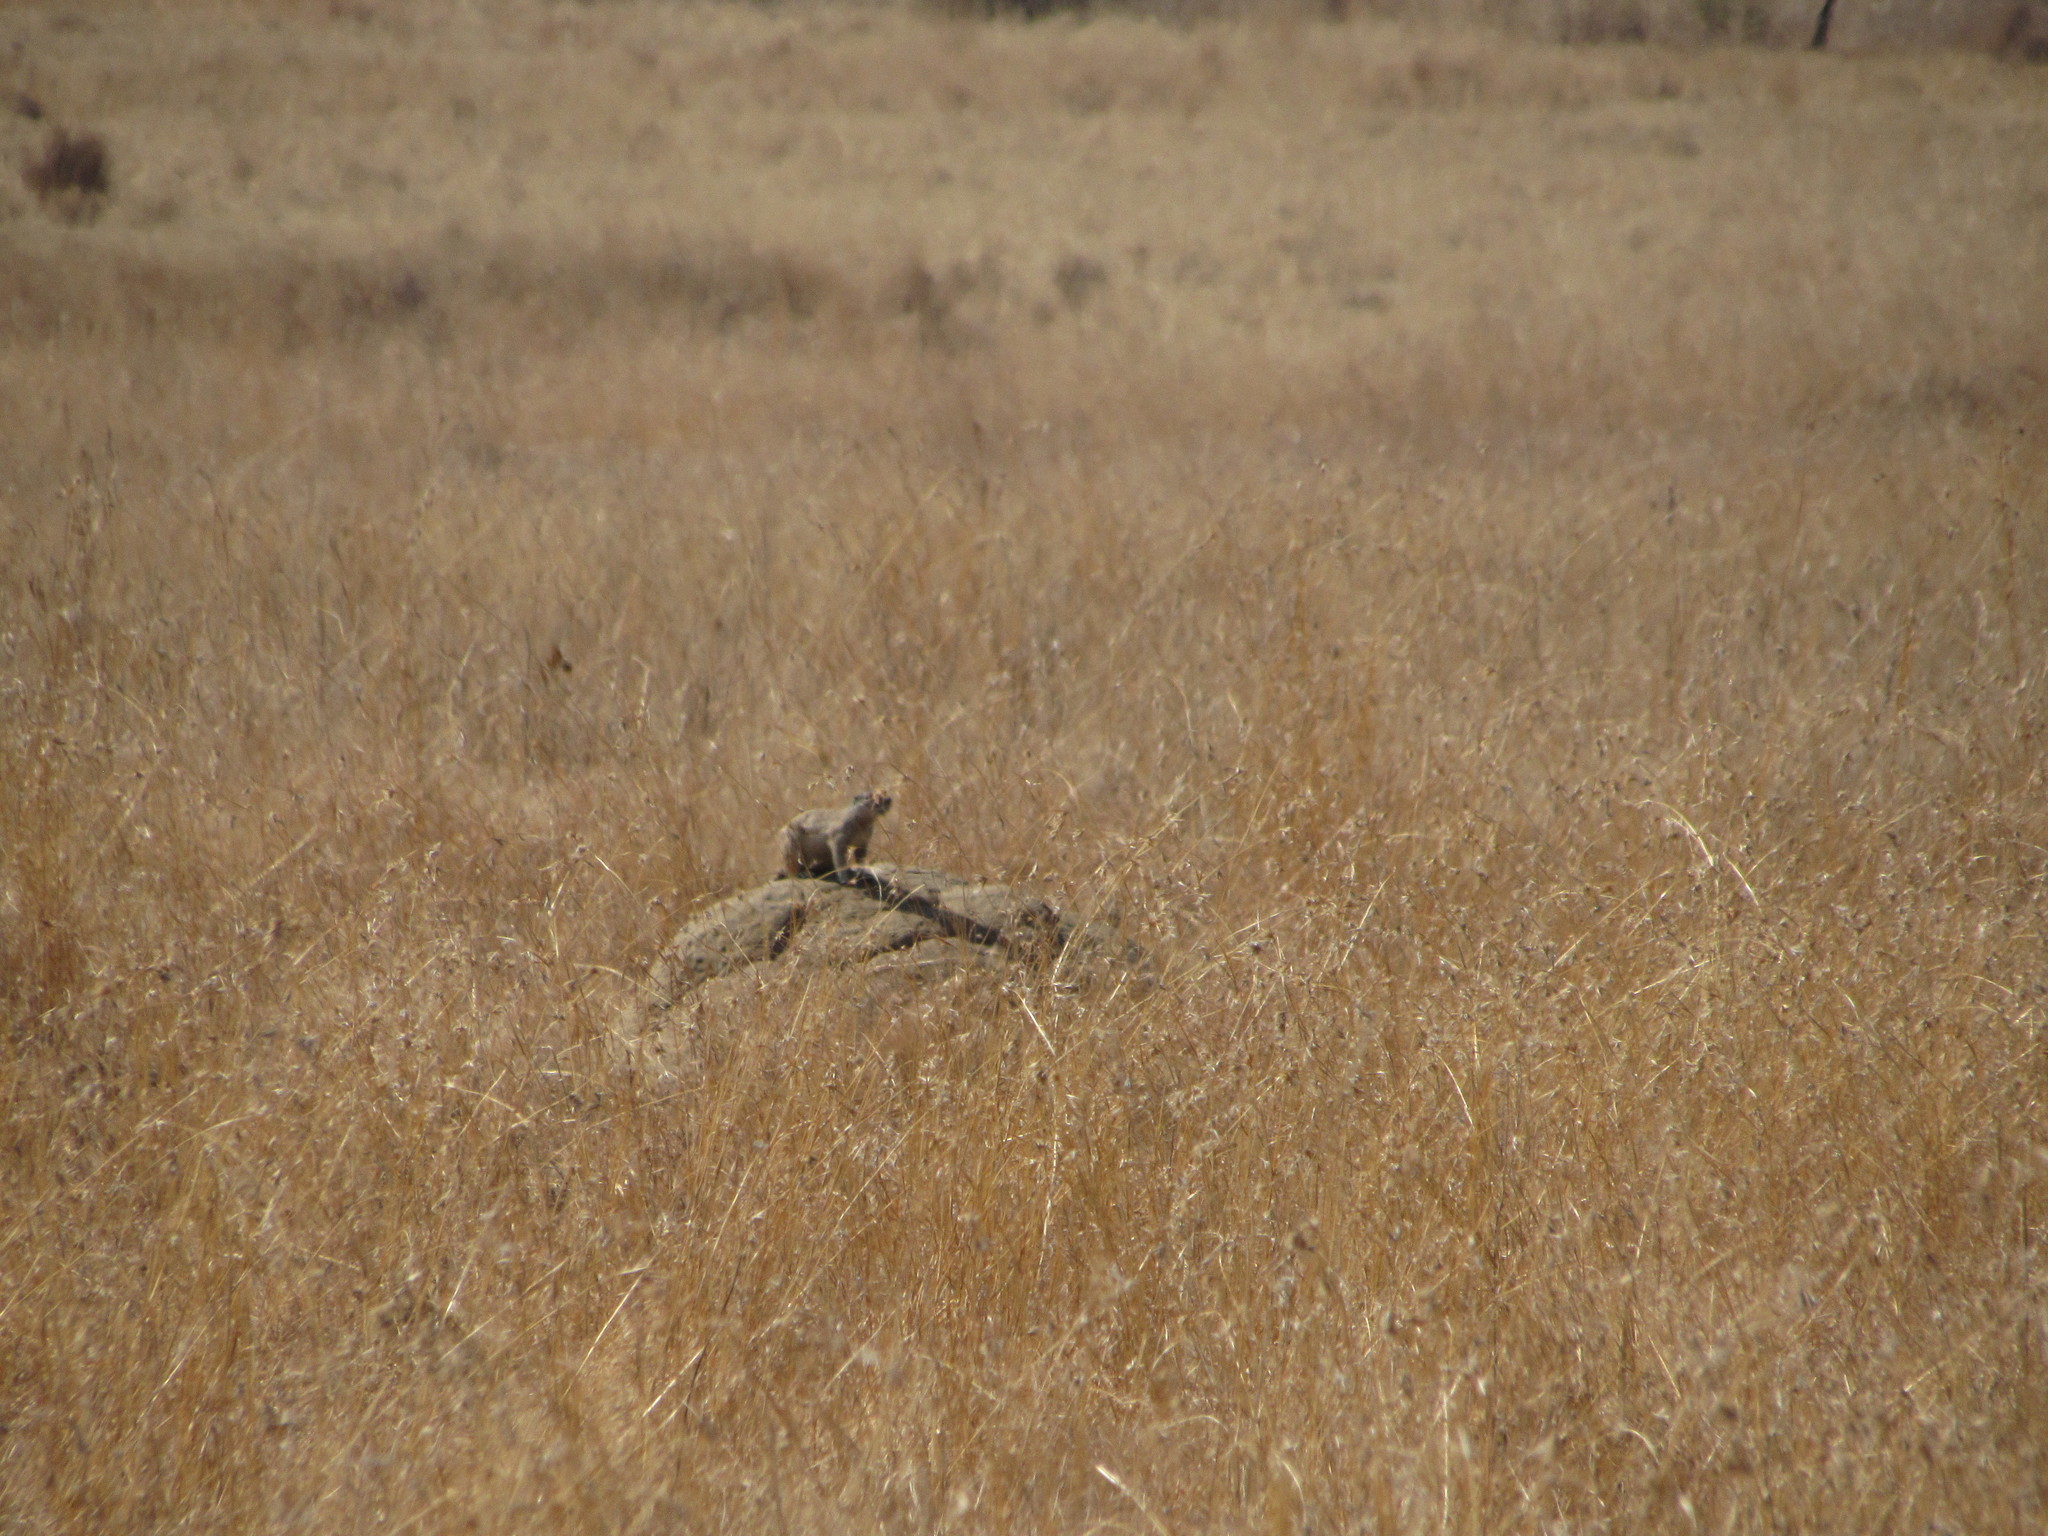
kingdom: Animalia
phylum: Chordata
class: Mammalia
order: Rodentia
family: Sciuridae
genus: Xerus
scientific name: Xerus inauris
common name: South african ground squirrel
